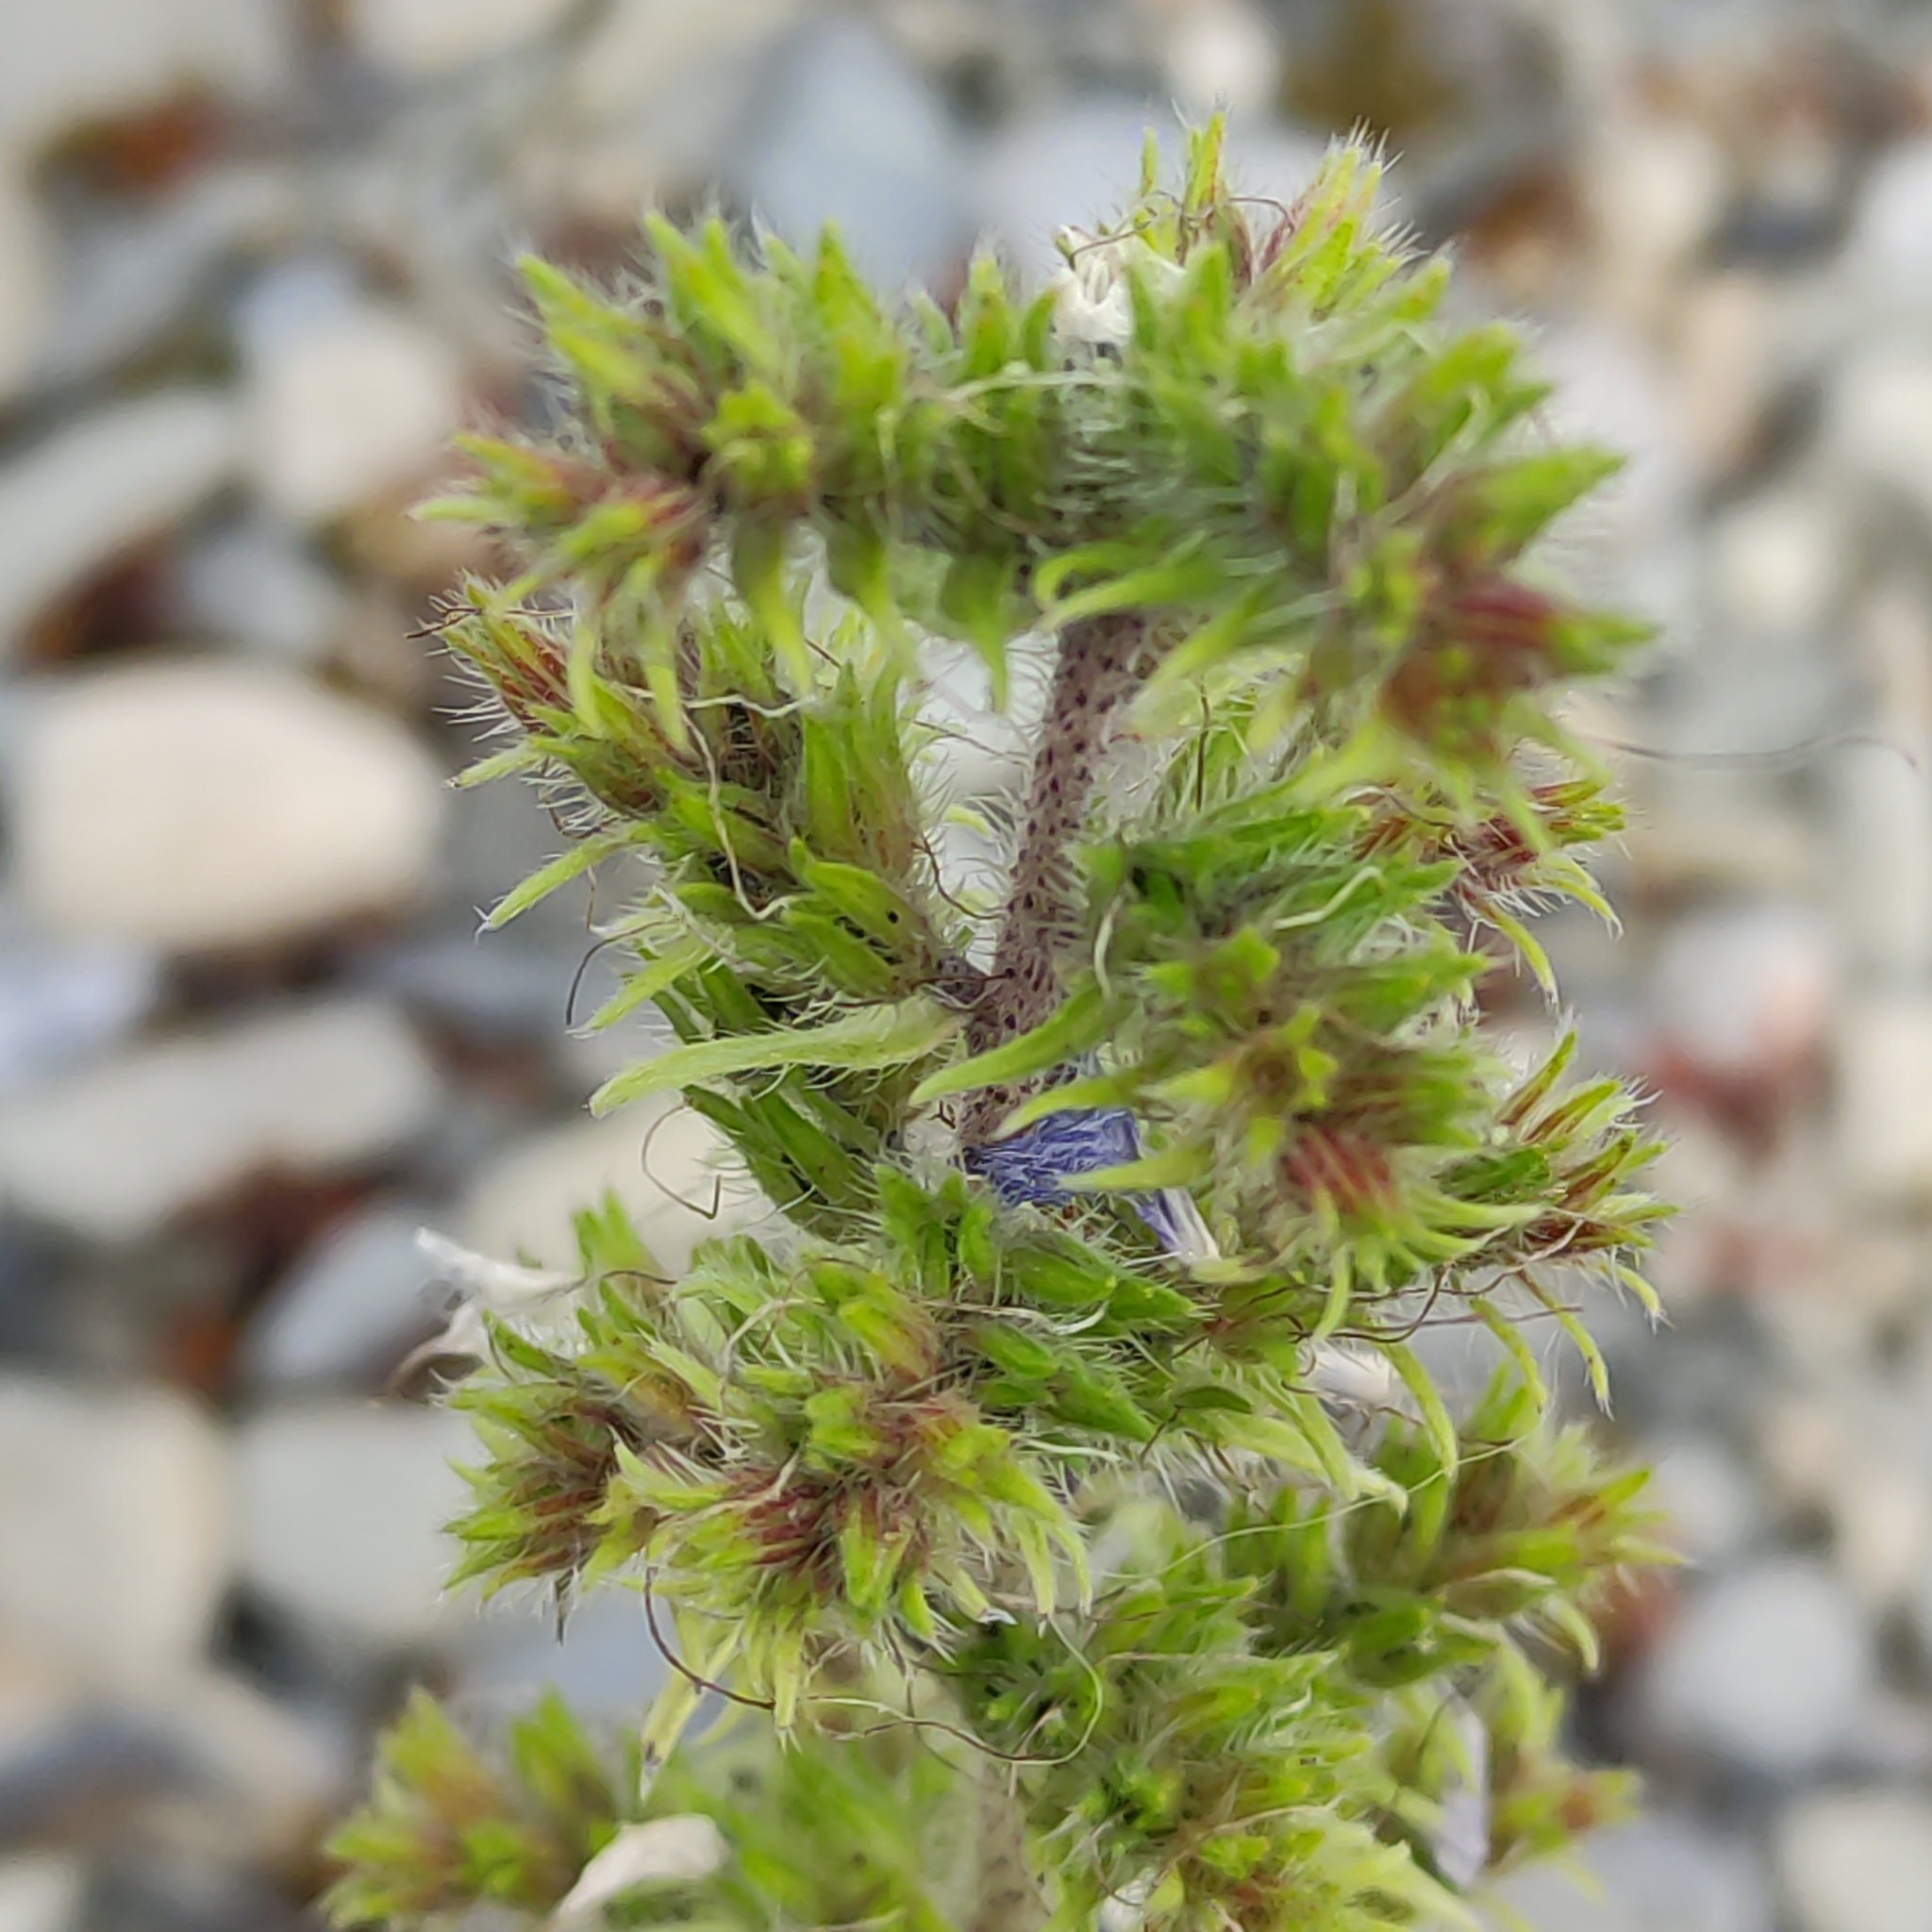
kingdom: Plantae
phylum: Tracheophyta
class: Magnoliopsida
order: Boraginales
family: Boraginaceae
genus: Echium
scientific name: Echium vulgare
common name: Common viper's bugloss
